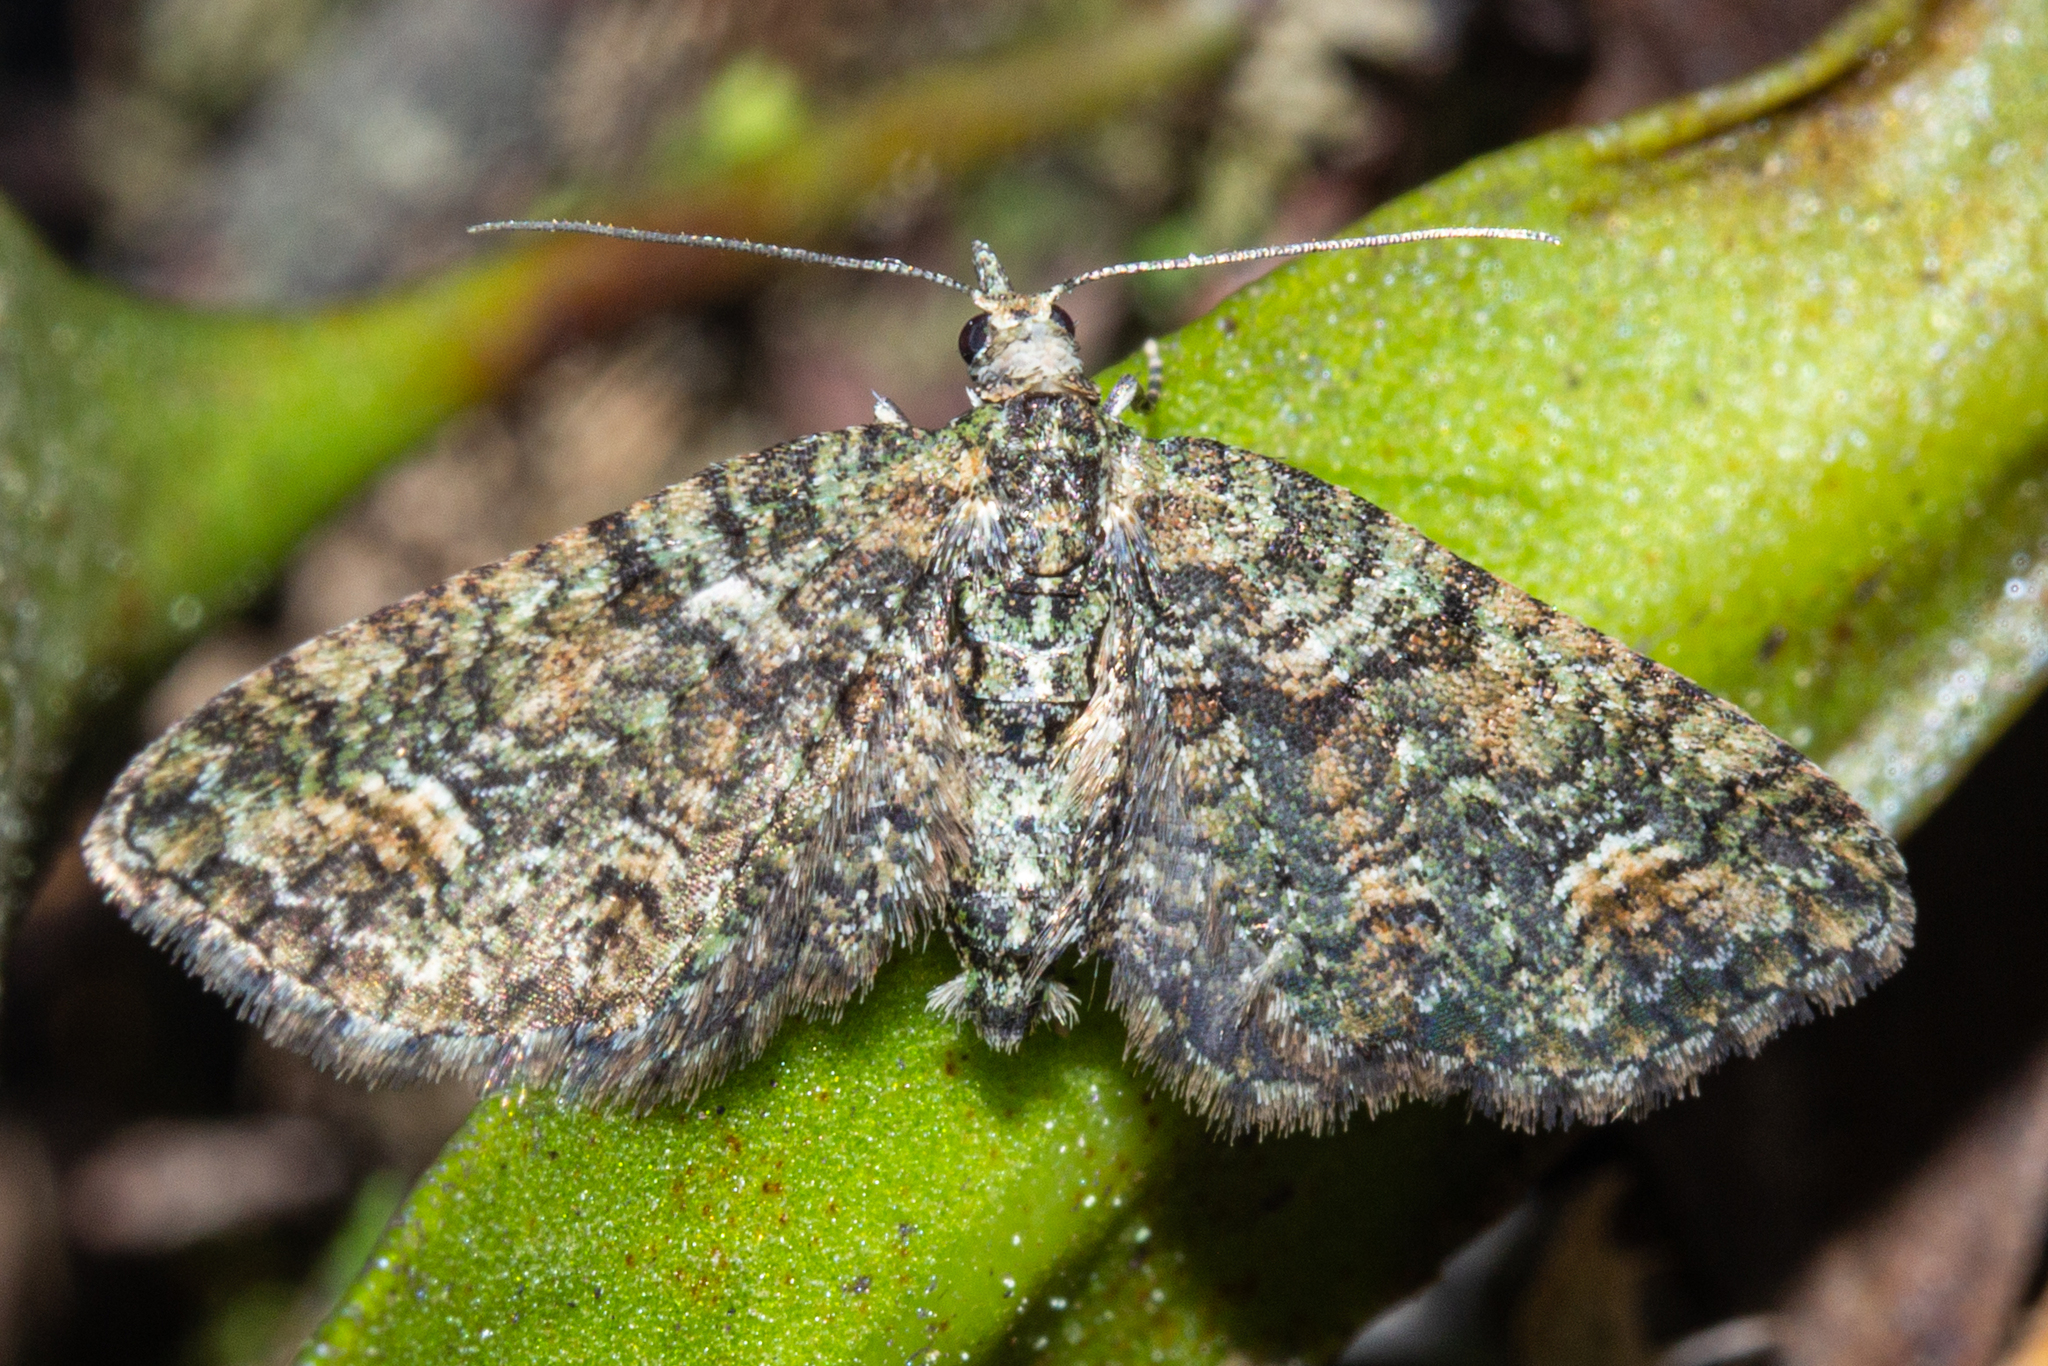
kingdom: Animalia
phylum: Arthropoda
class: Insecta
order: Lepidoptera
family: Geometridae
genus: Idaea
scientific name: Idaea mutanda
